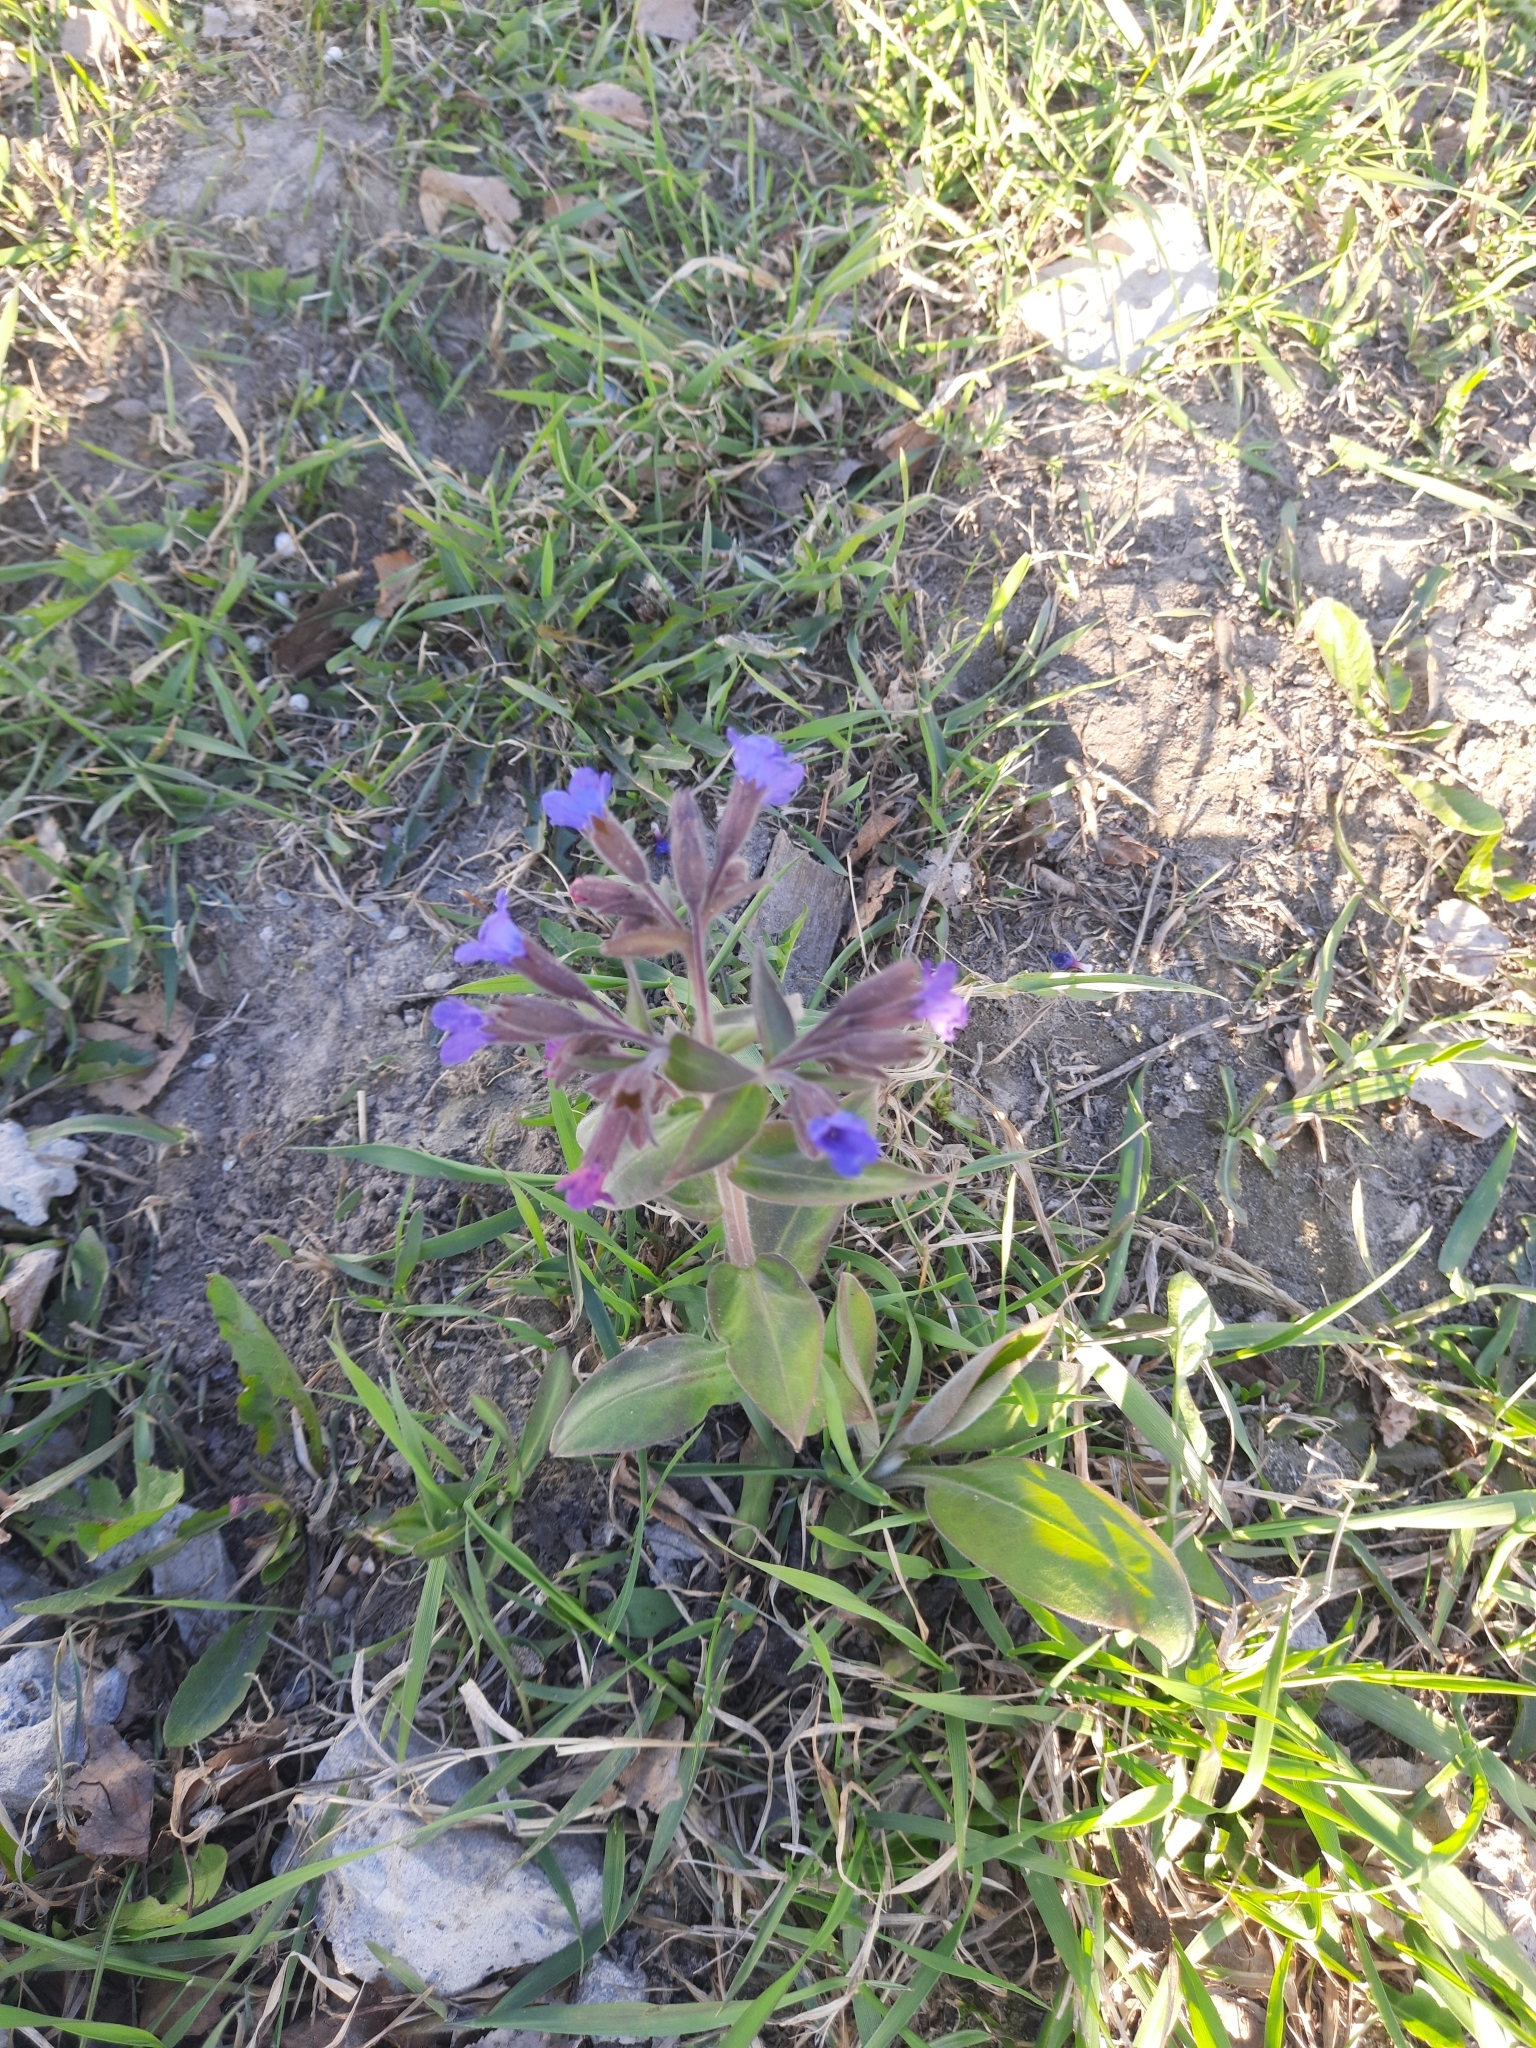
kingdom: Plantae
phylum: Tracheophyta
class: Magnoliopsida
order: Boraginales
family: Boraginaceae
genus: Pulmonaria
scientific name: Pulmonaria mollis
